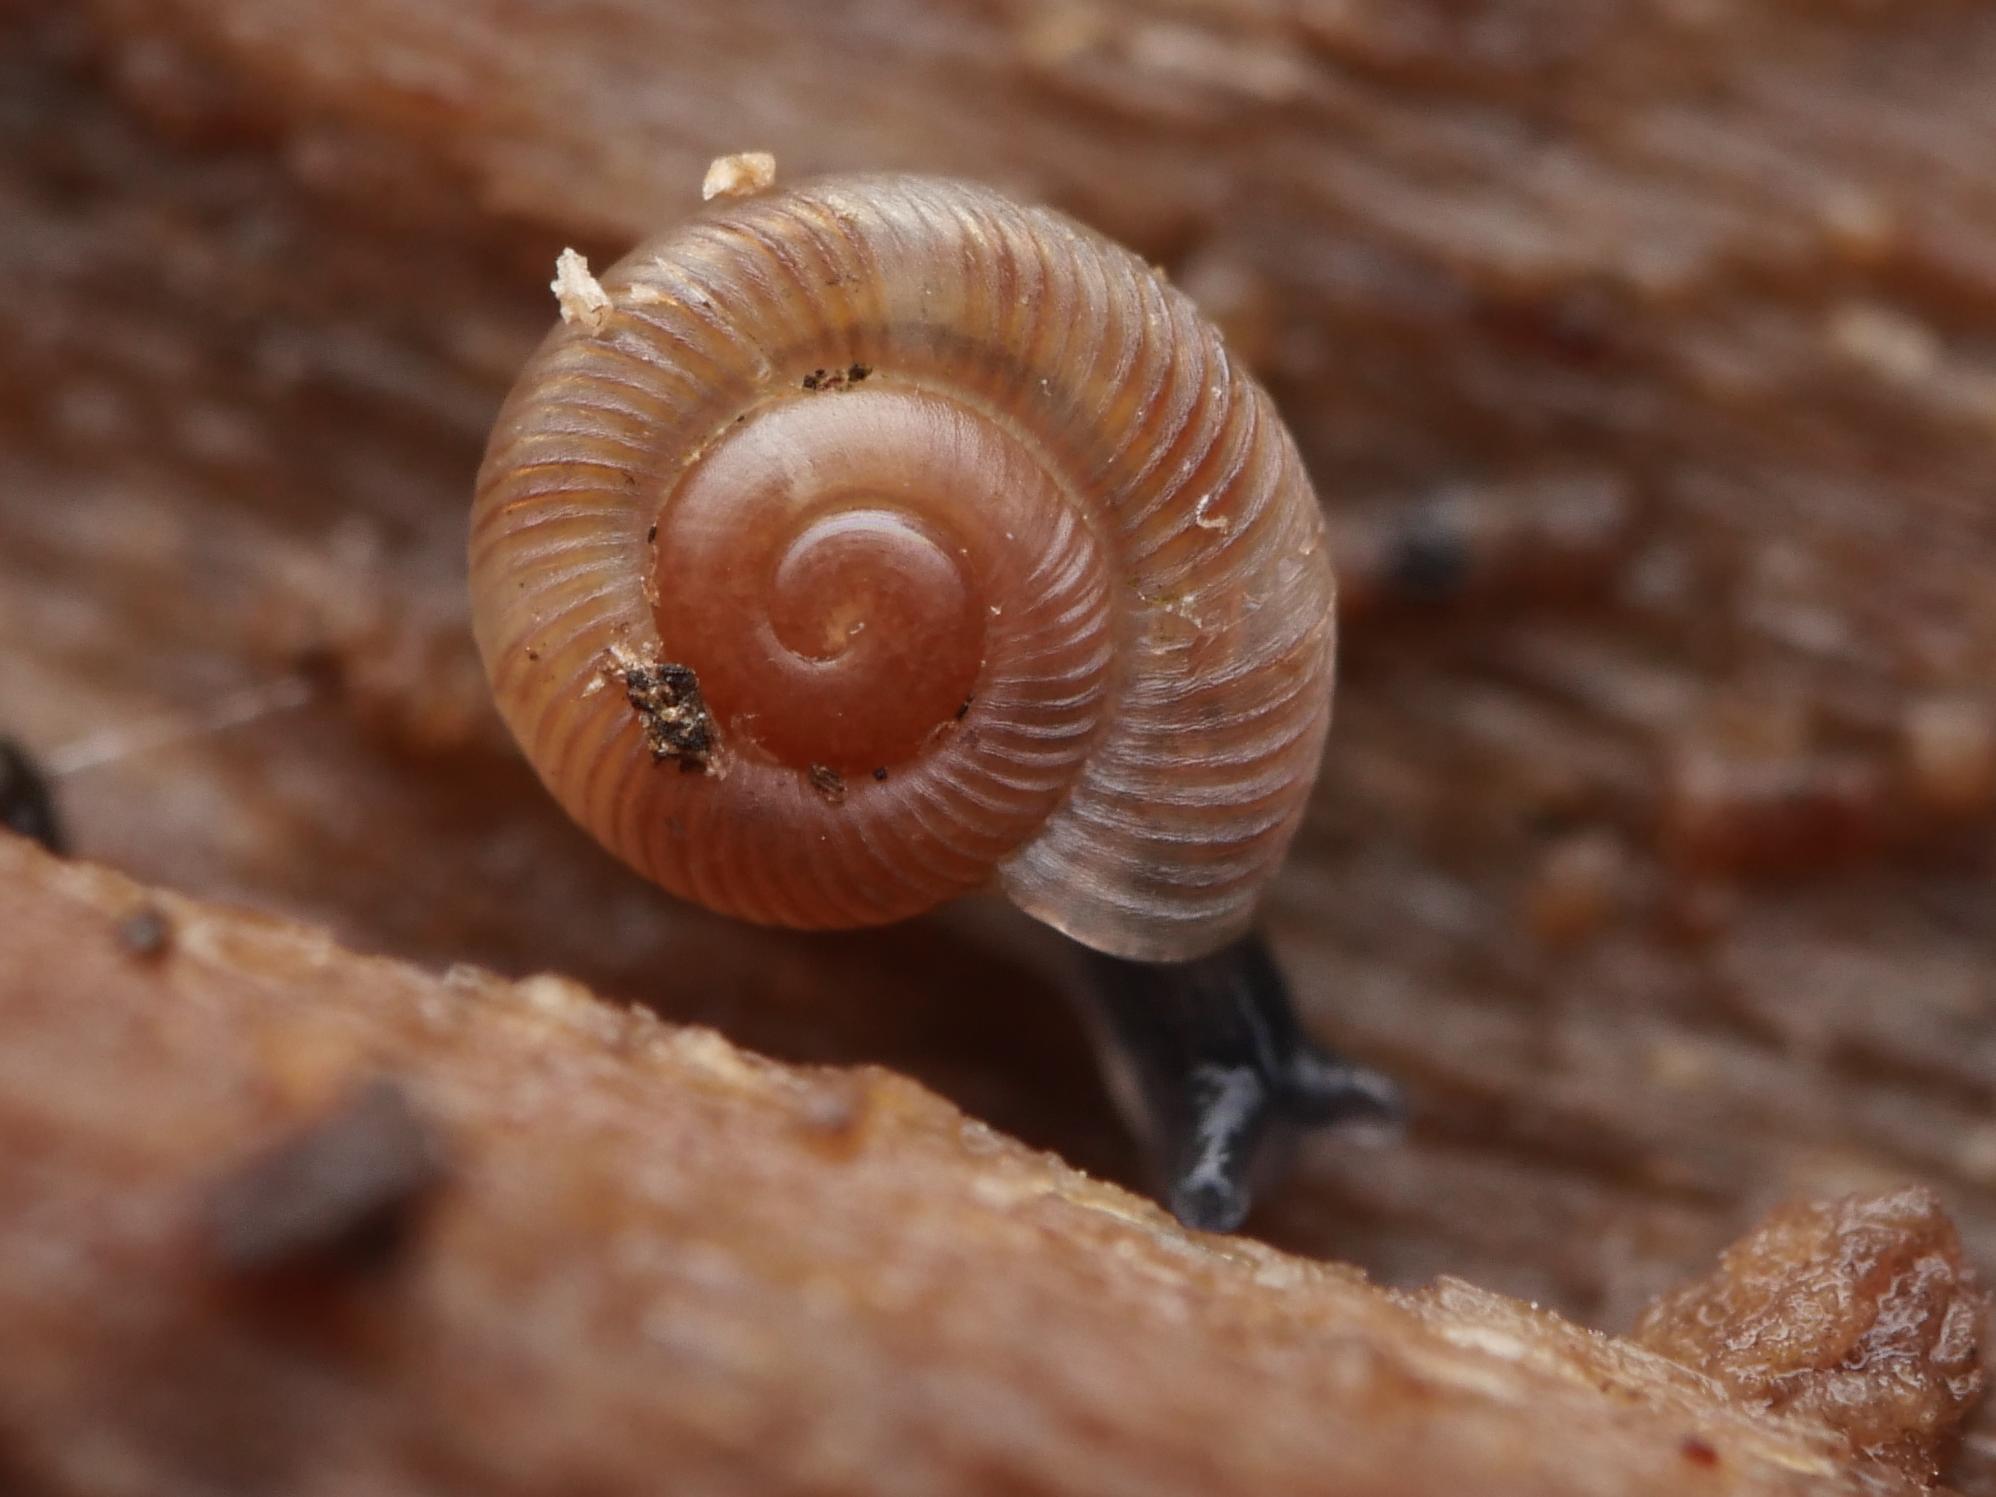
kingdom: Animalia
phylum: Mollusca
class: Gastropoda
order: Stylommatophora
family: Discidae
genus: Discus
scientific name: Discus rotundatus
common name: Rounded snail
